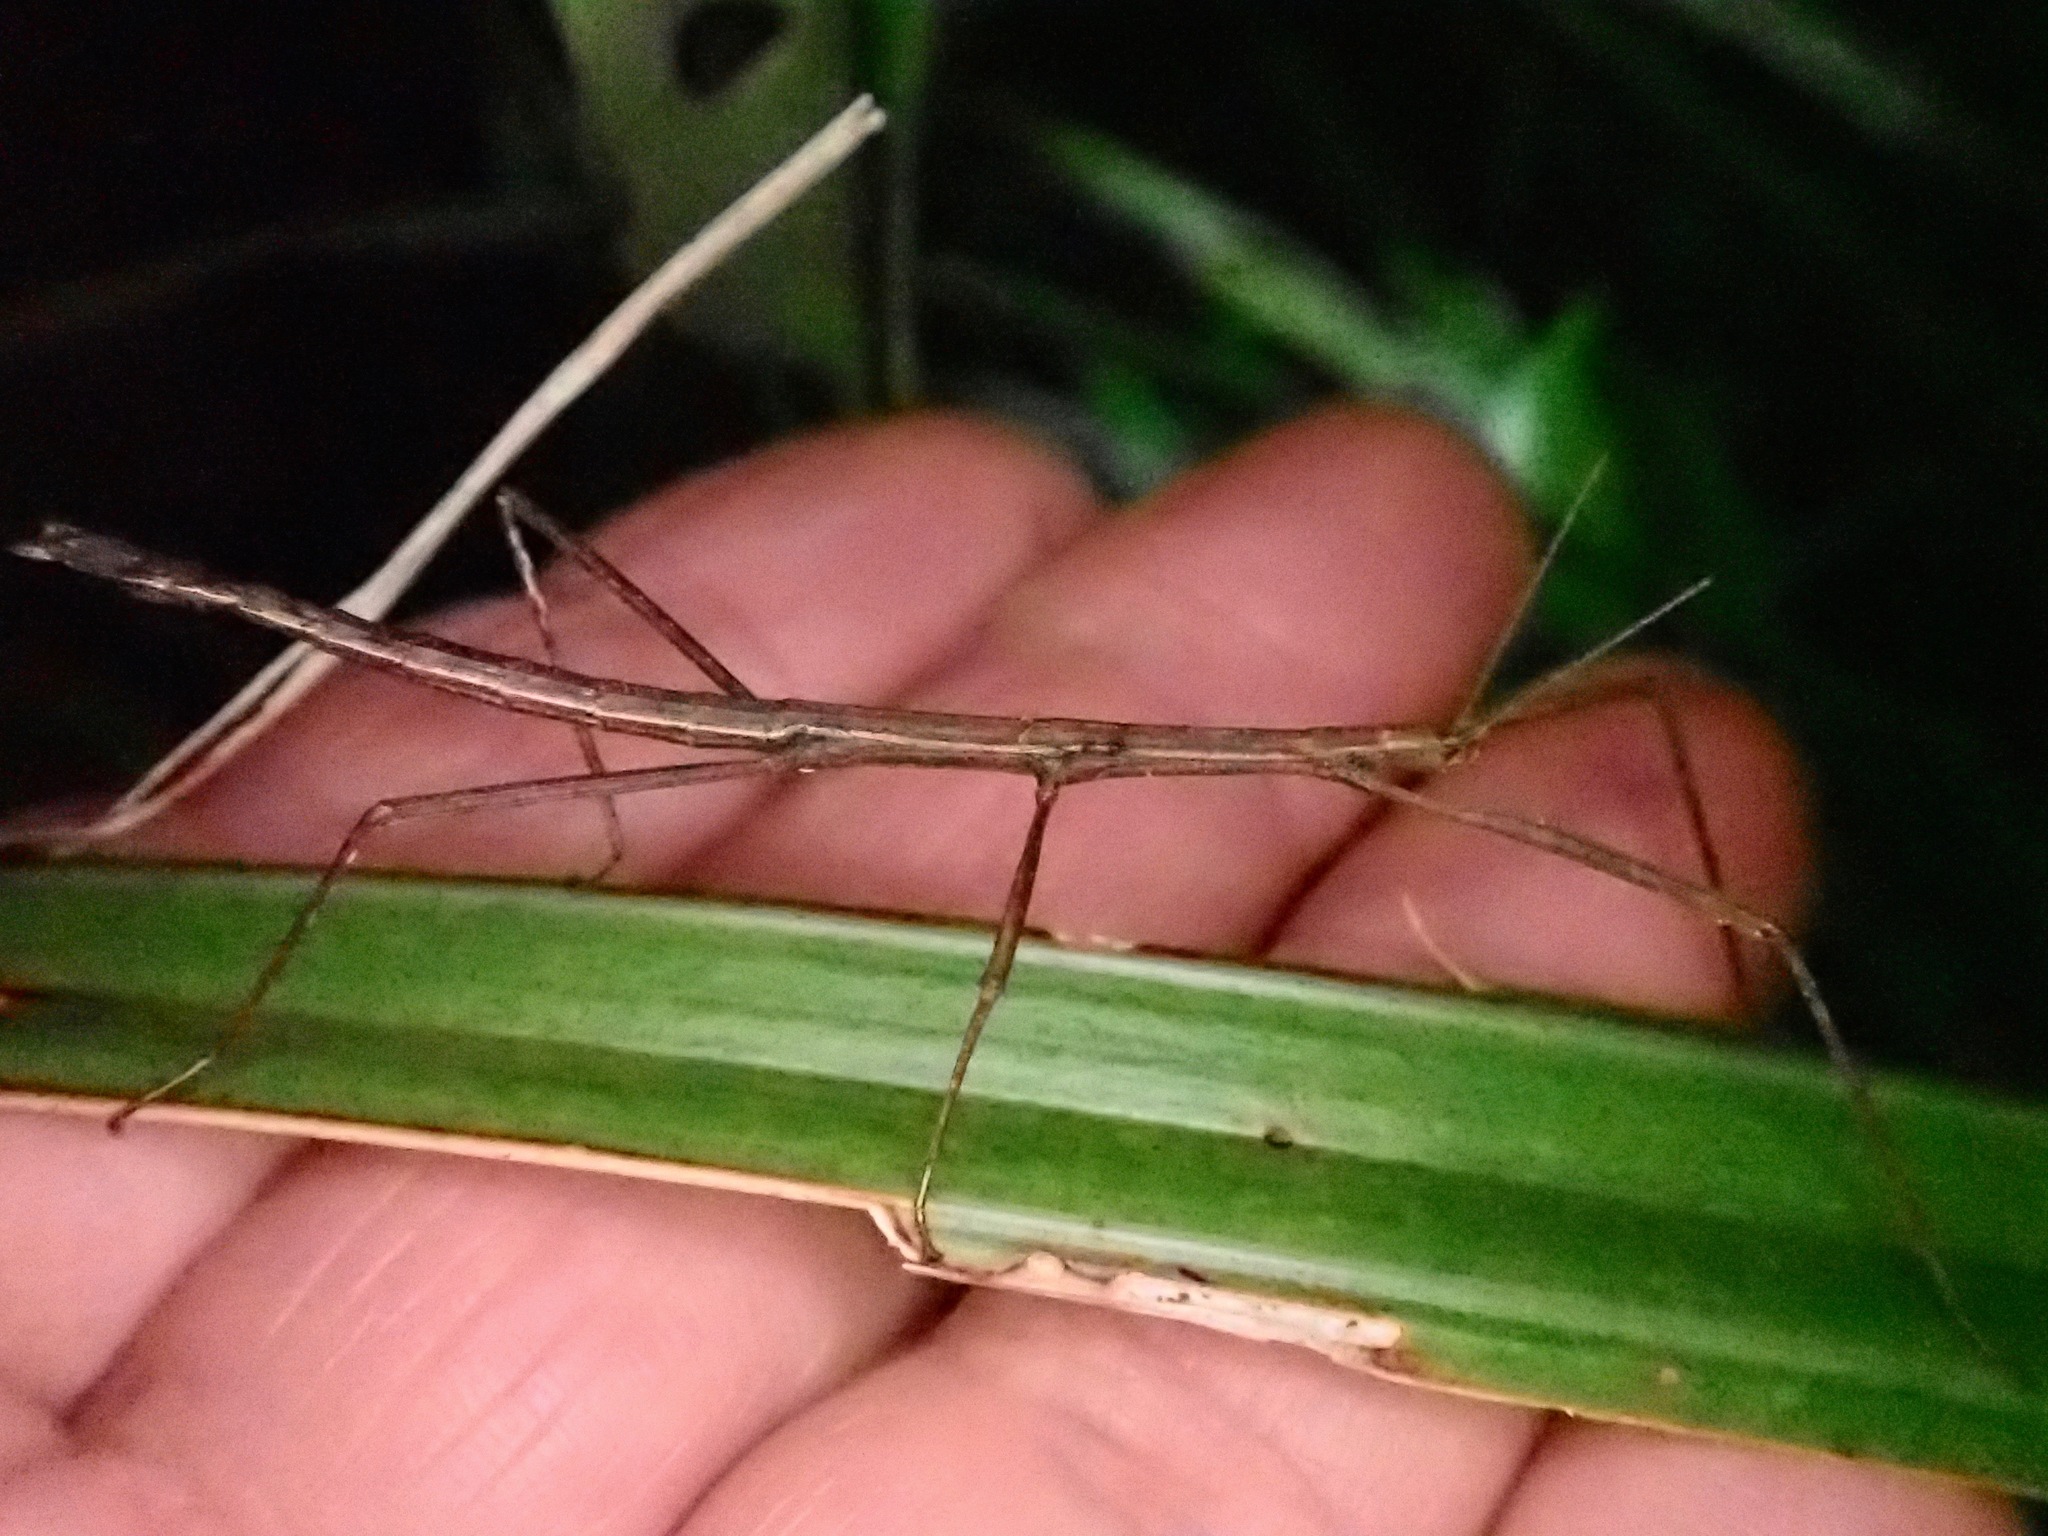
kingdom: Animalia
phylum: Arthropoda
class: Insecta
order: Phasmida
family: Phasmatidae
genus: Tectarchus
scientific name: Tectarchus ovobessus
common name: The rough-skinned ridge-backed stick insect
